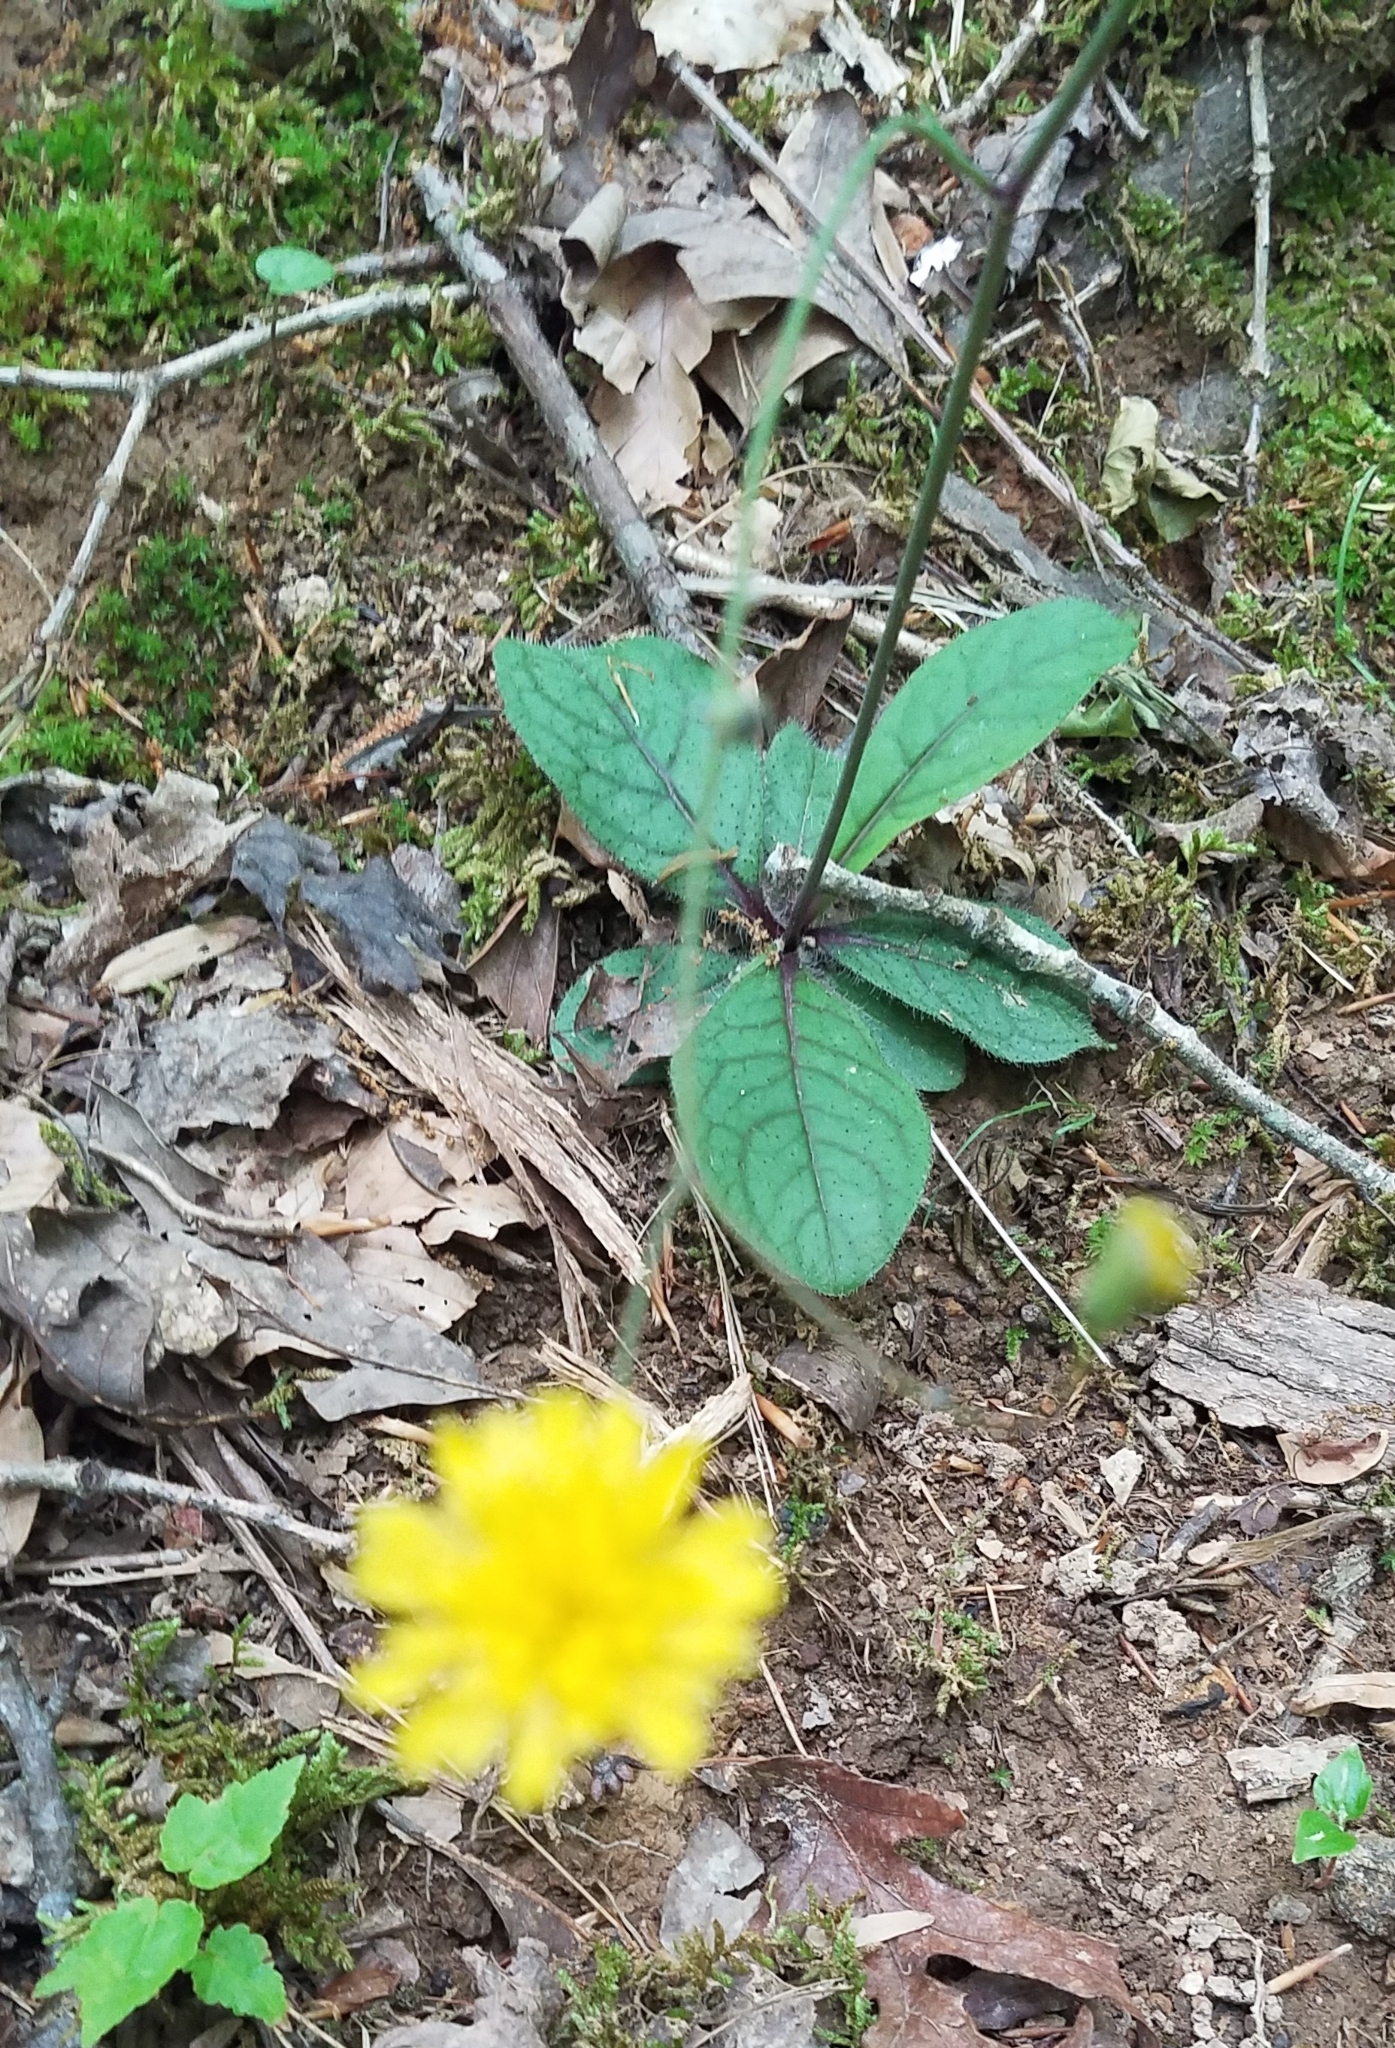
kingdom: Plantae
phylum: Tracheophyta
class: Magnoliopsida
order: Asterales
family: Asteraceae
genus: Hieracium
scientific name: Hieracium venosum
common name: Rattlesnake hawkweed
